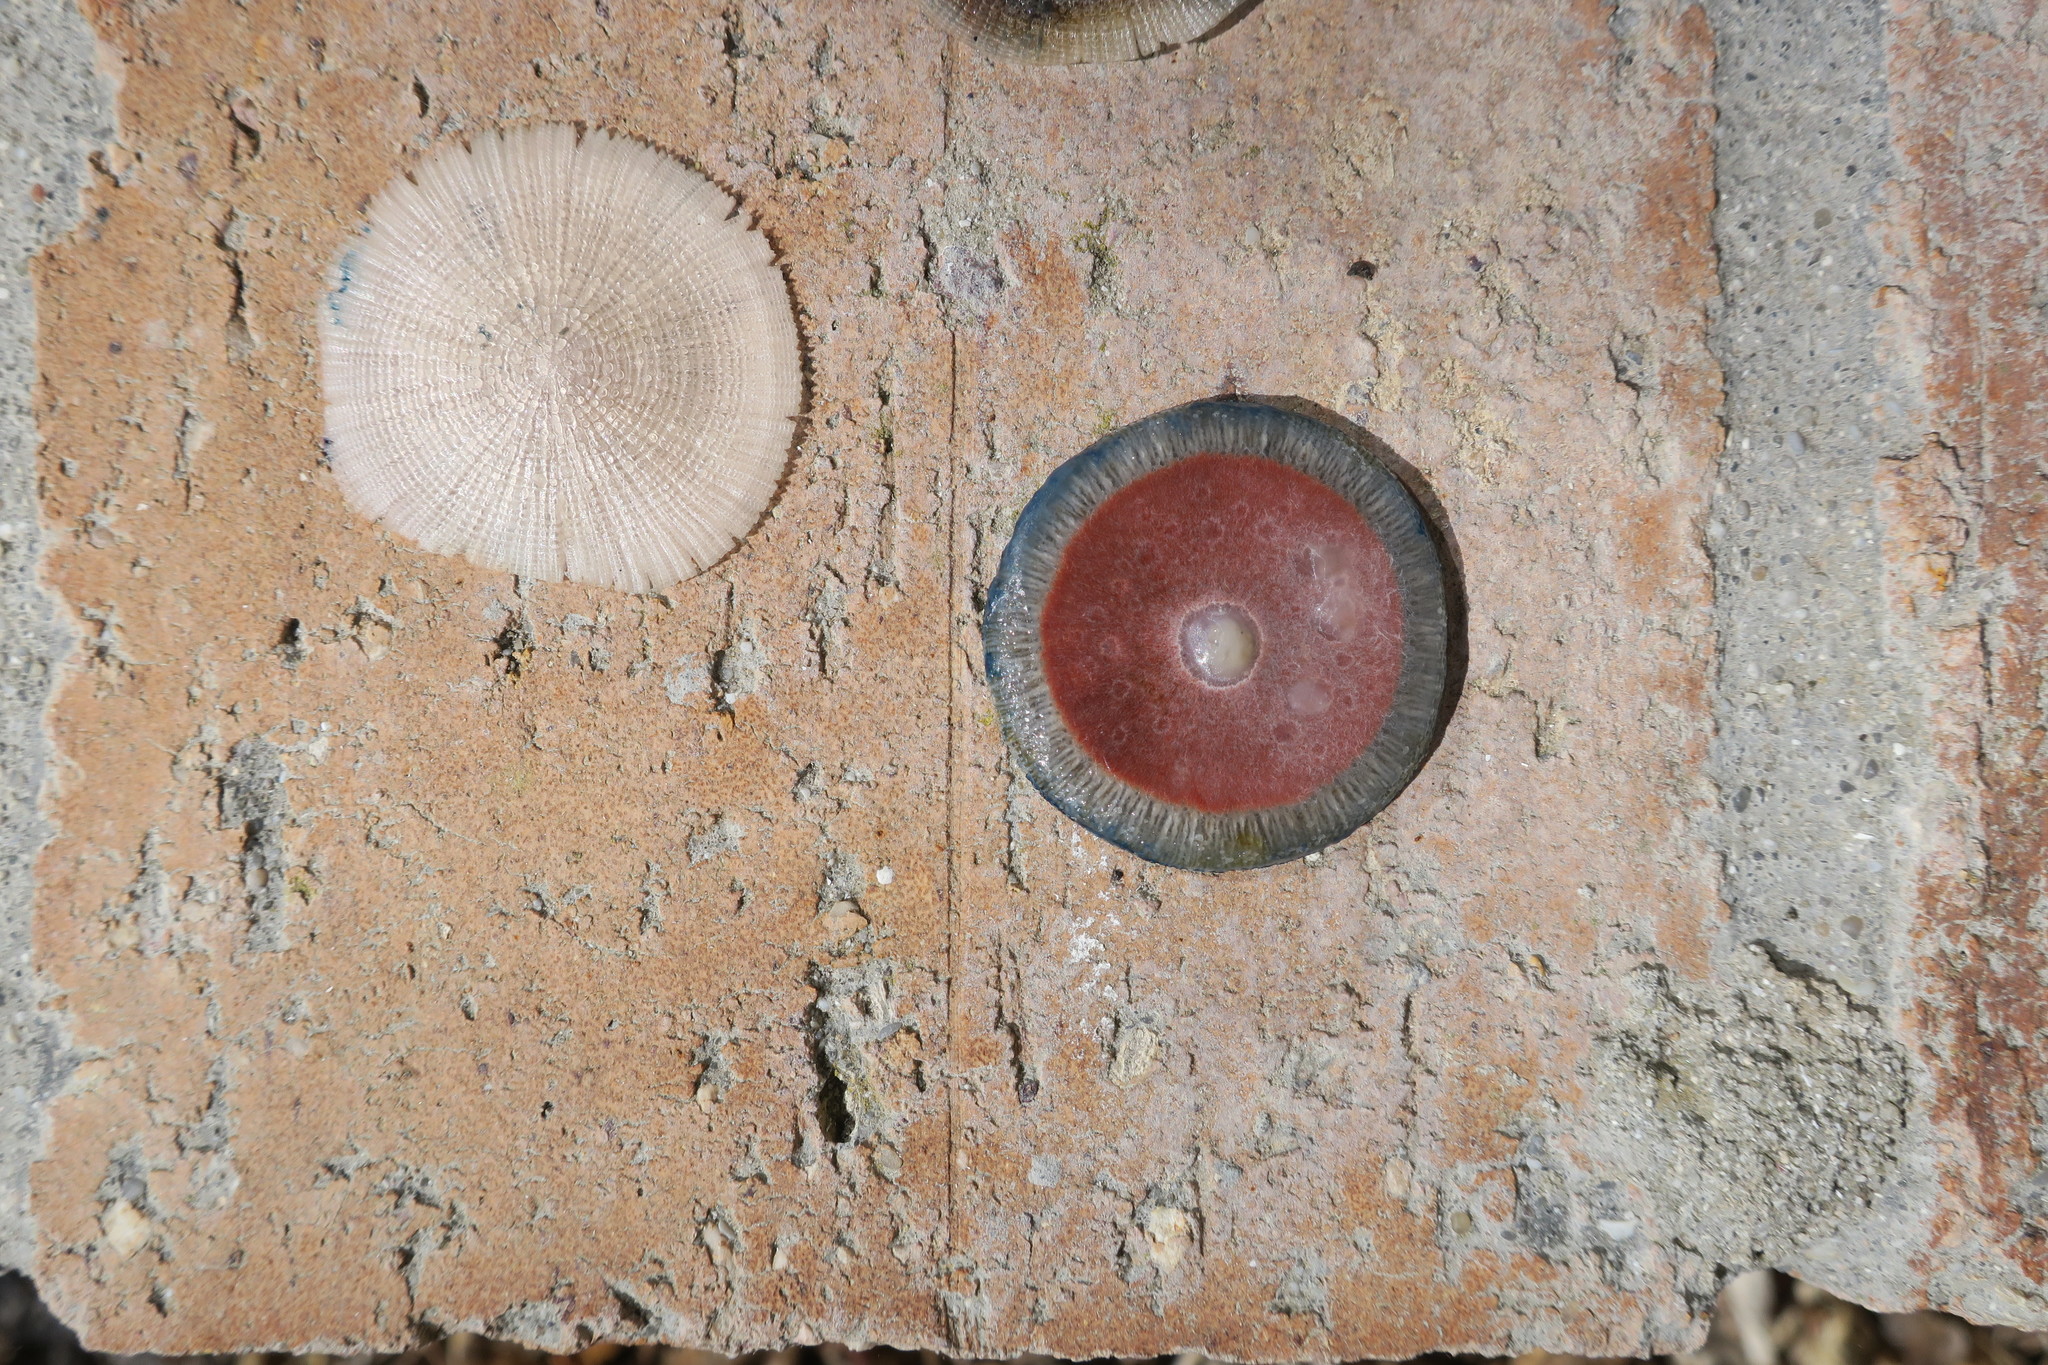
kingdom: Animalia
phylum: Cnidaria
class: Hydrozoa
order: Anthoathecata
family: Porpitidae
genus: Porpita
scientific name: Porpita porpita
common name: Blue button
